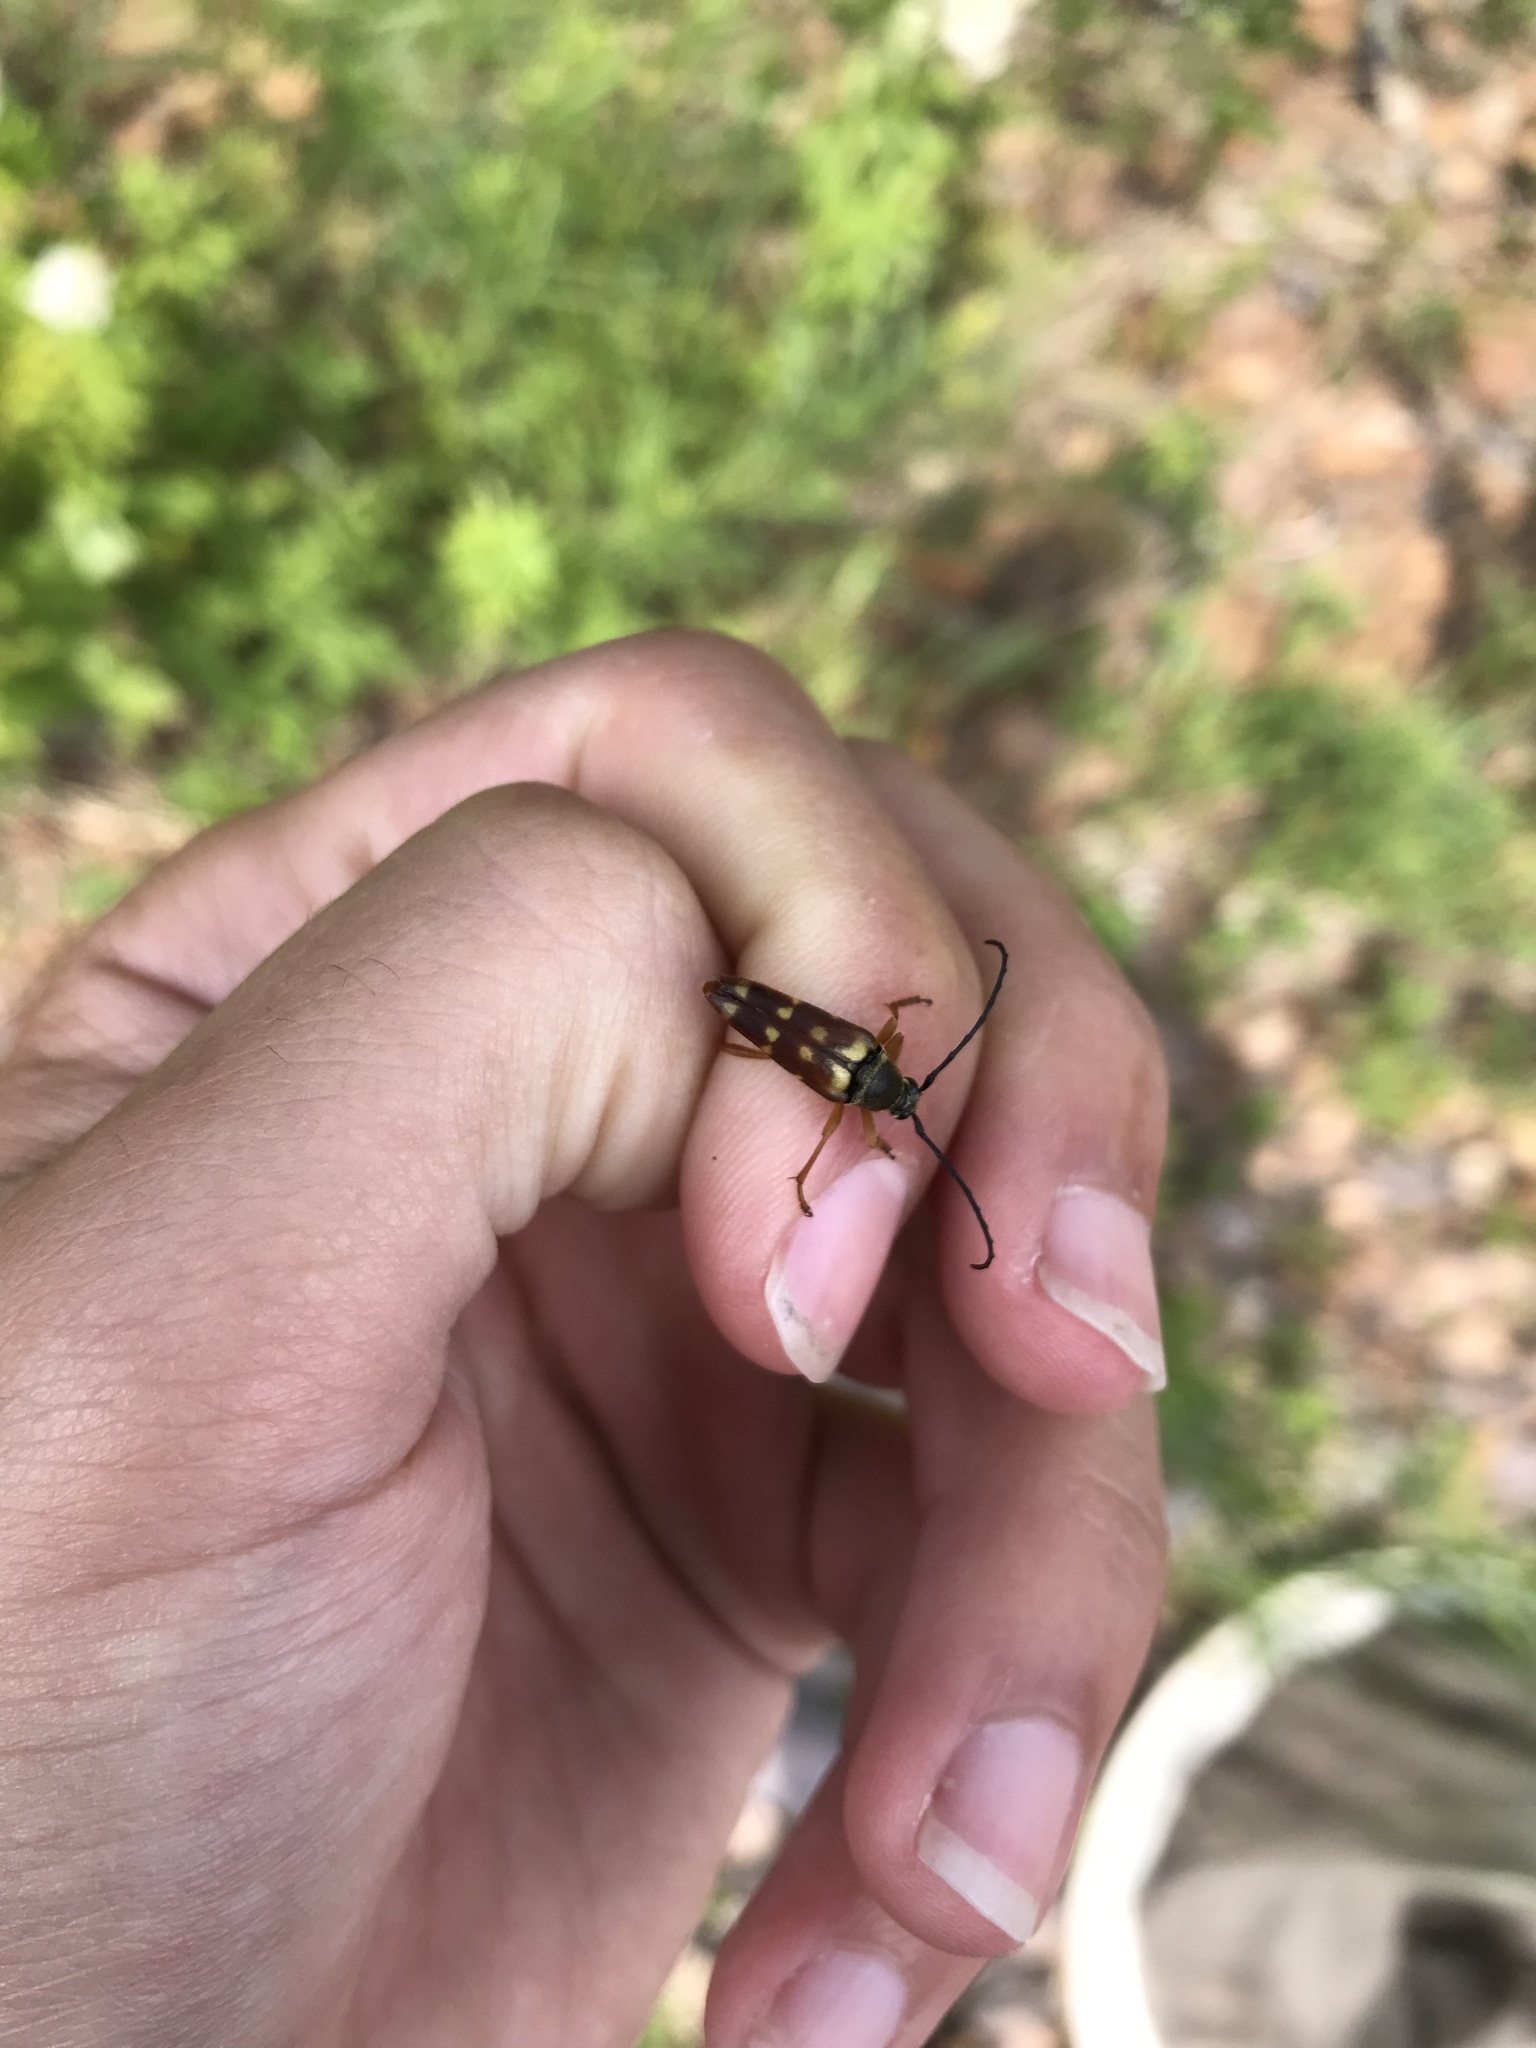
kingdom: Animalia
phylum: Arthropoda
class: Insecta
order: Coleoptera
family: Cerambycidae
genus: Typocerus
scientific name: Typocerus velutinus
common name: Banded longhorn beetle
